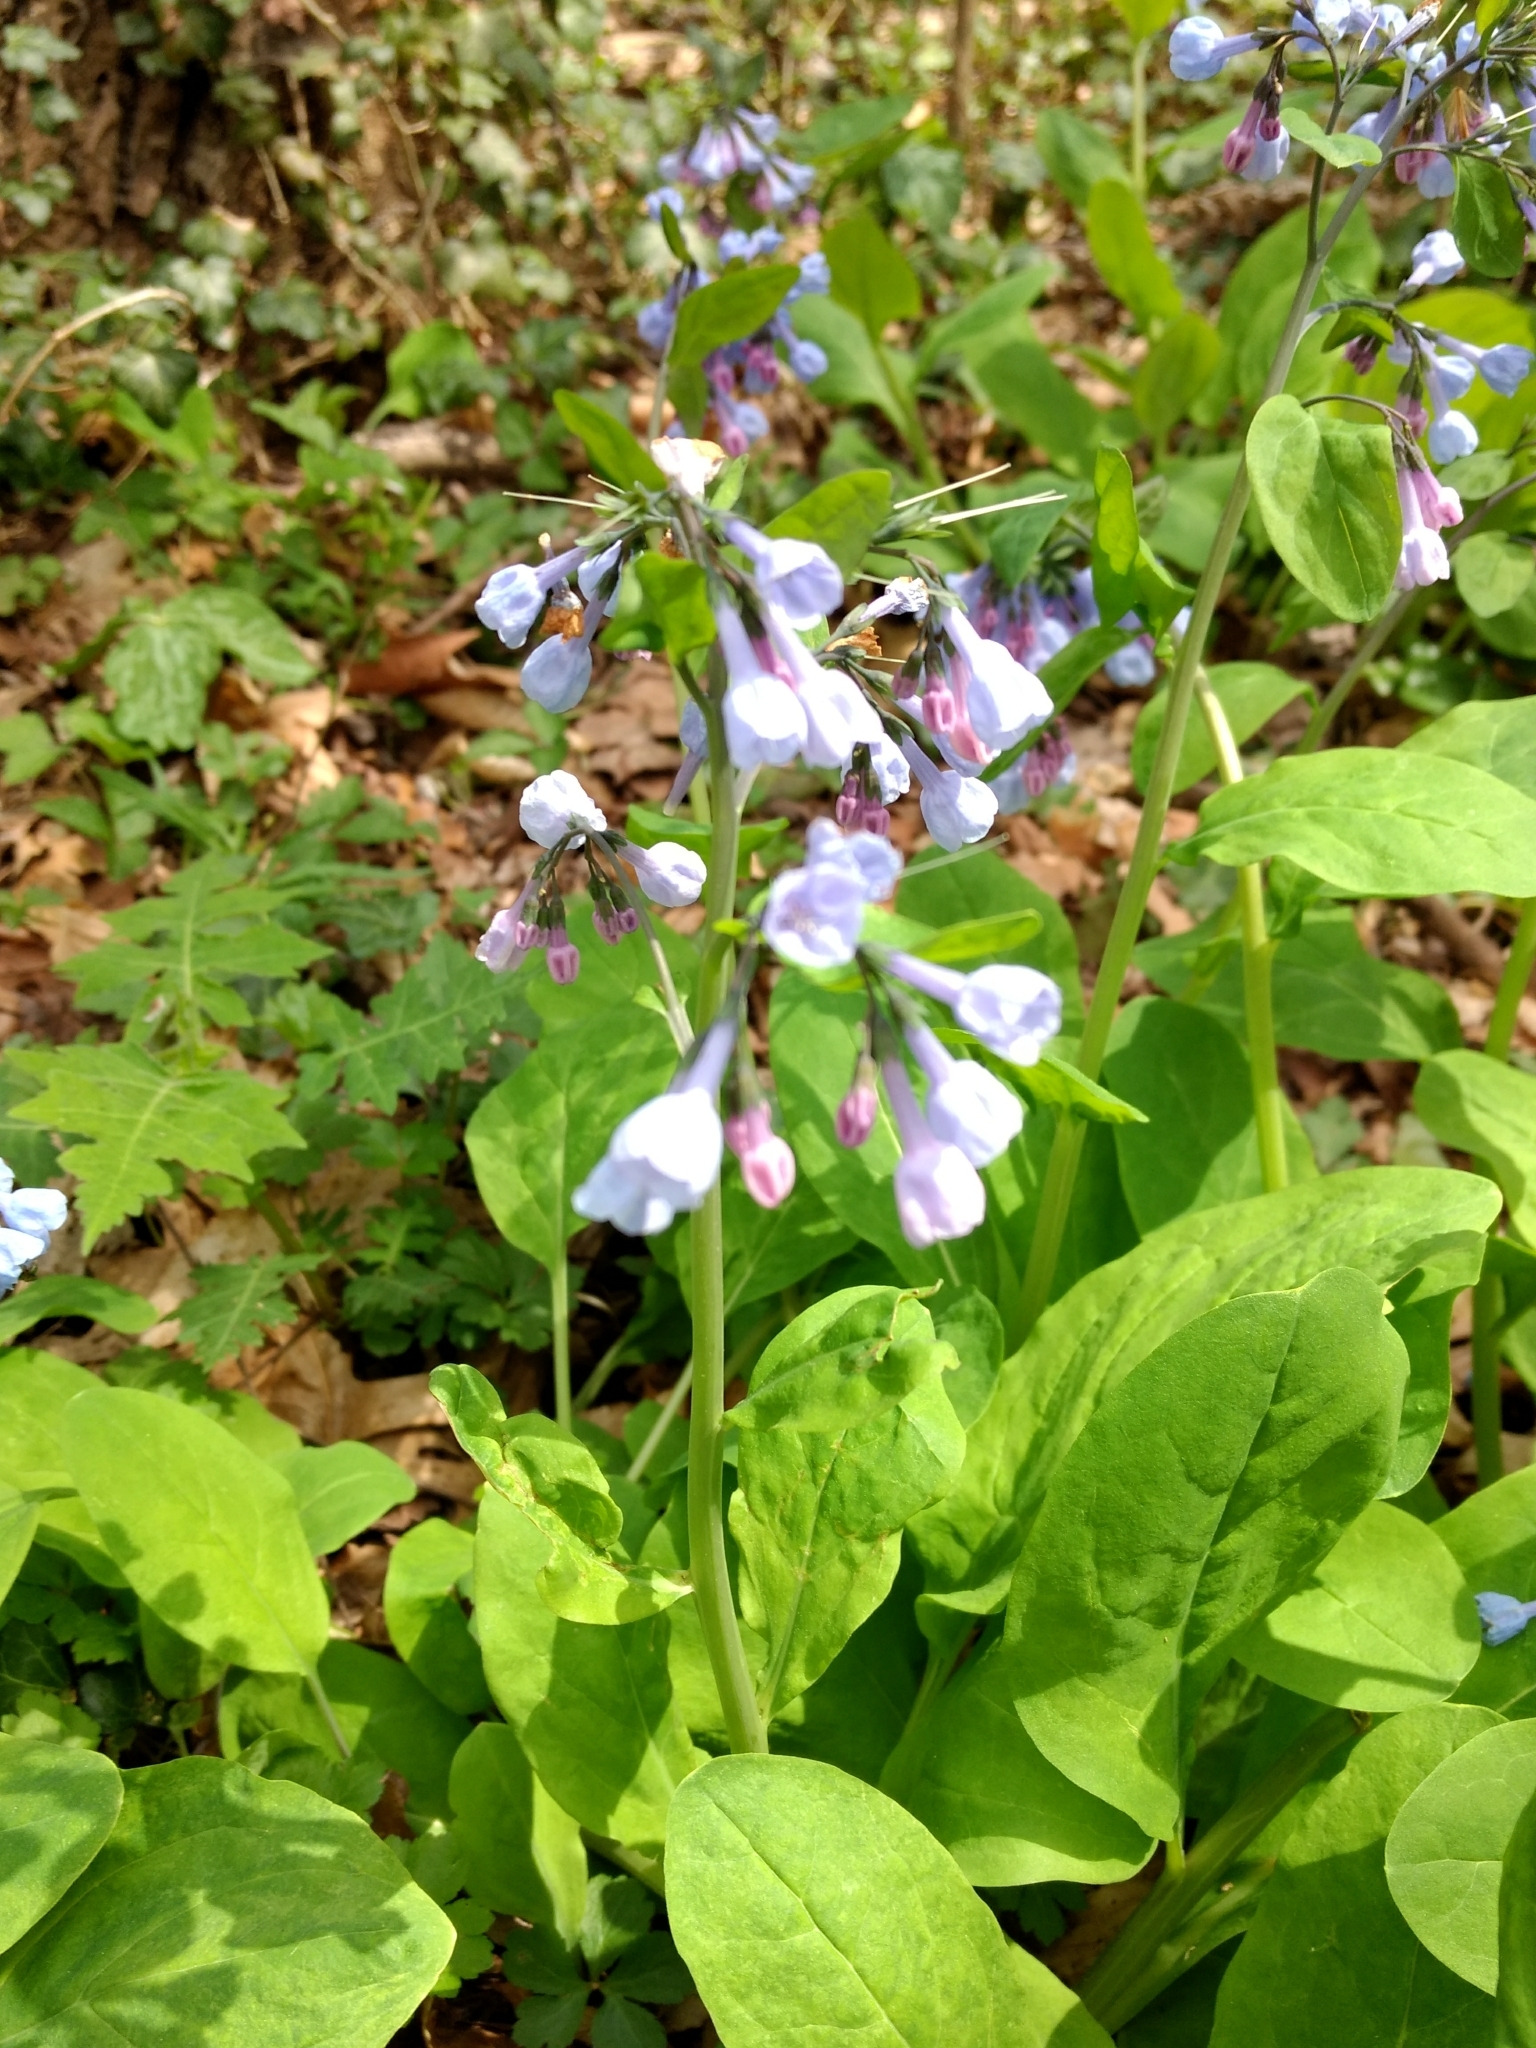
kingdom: Plantae
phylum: Tracheophyta
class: Magnoliopsida
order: Boraginales
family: Boraginaceae
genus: Mertensia
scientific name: Mertensia virginica
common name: Virginia bluebells
